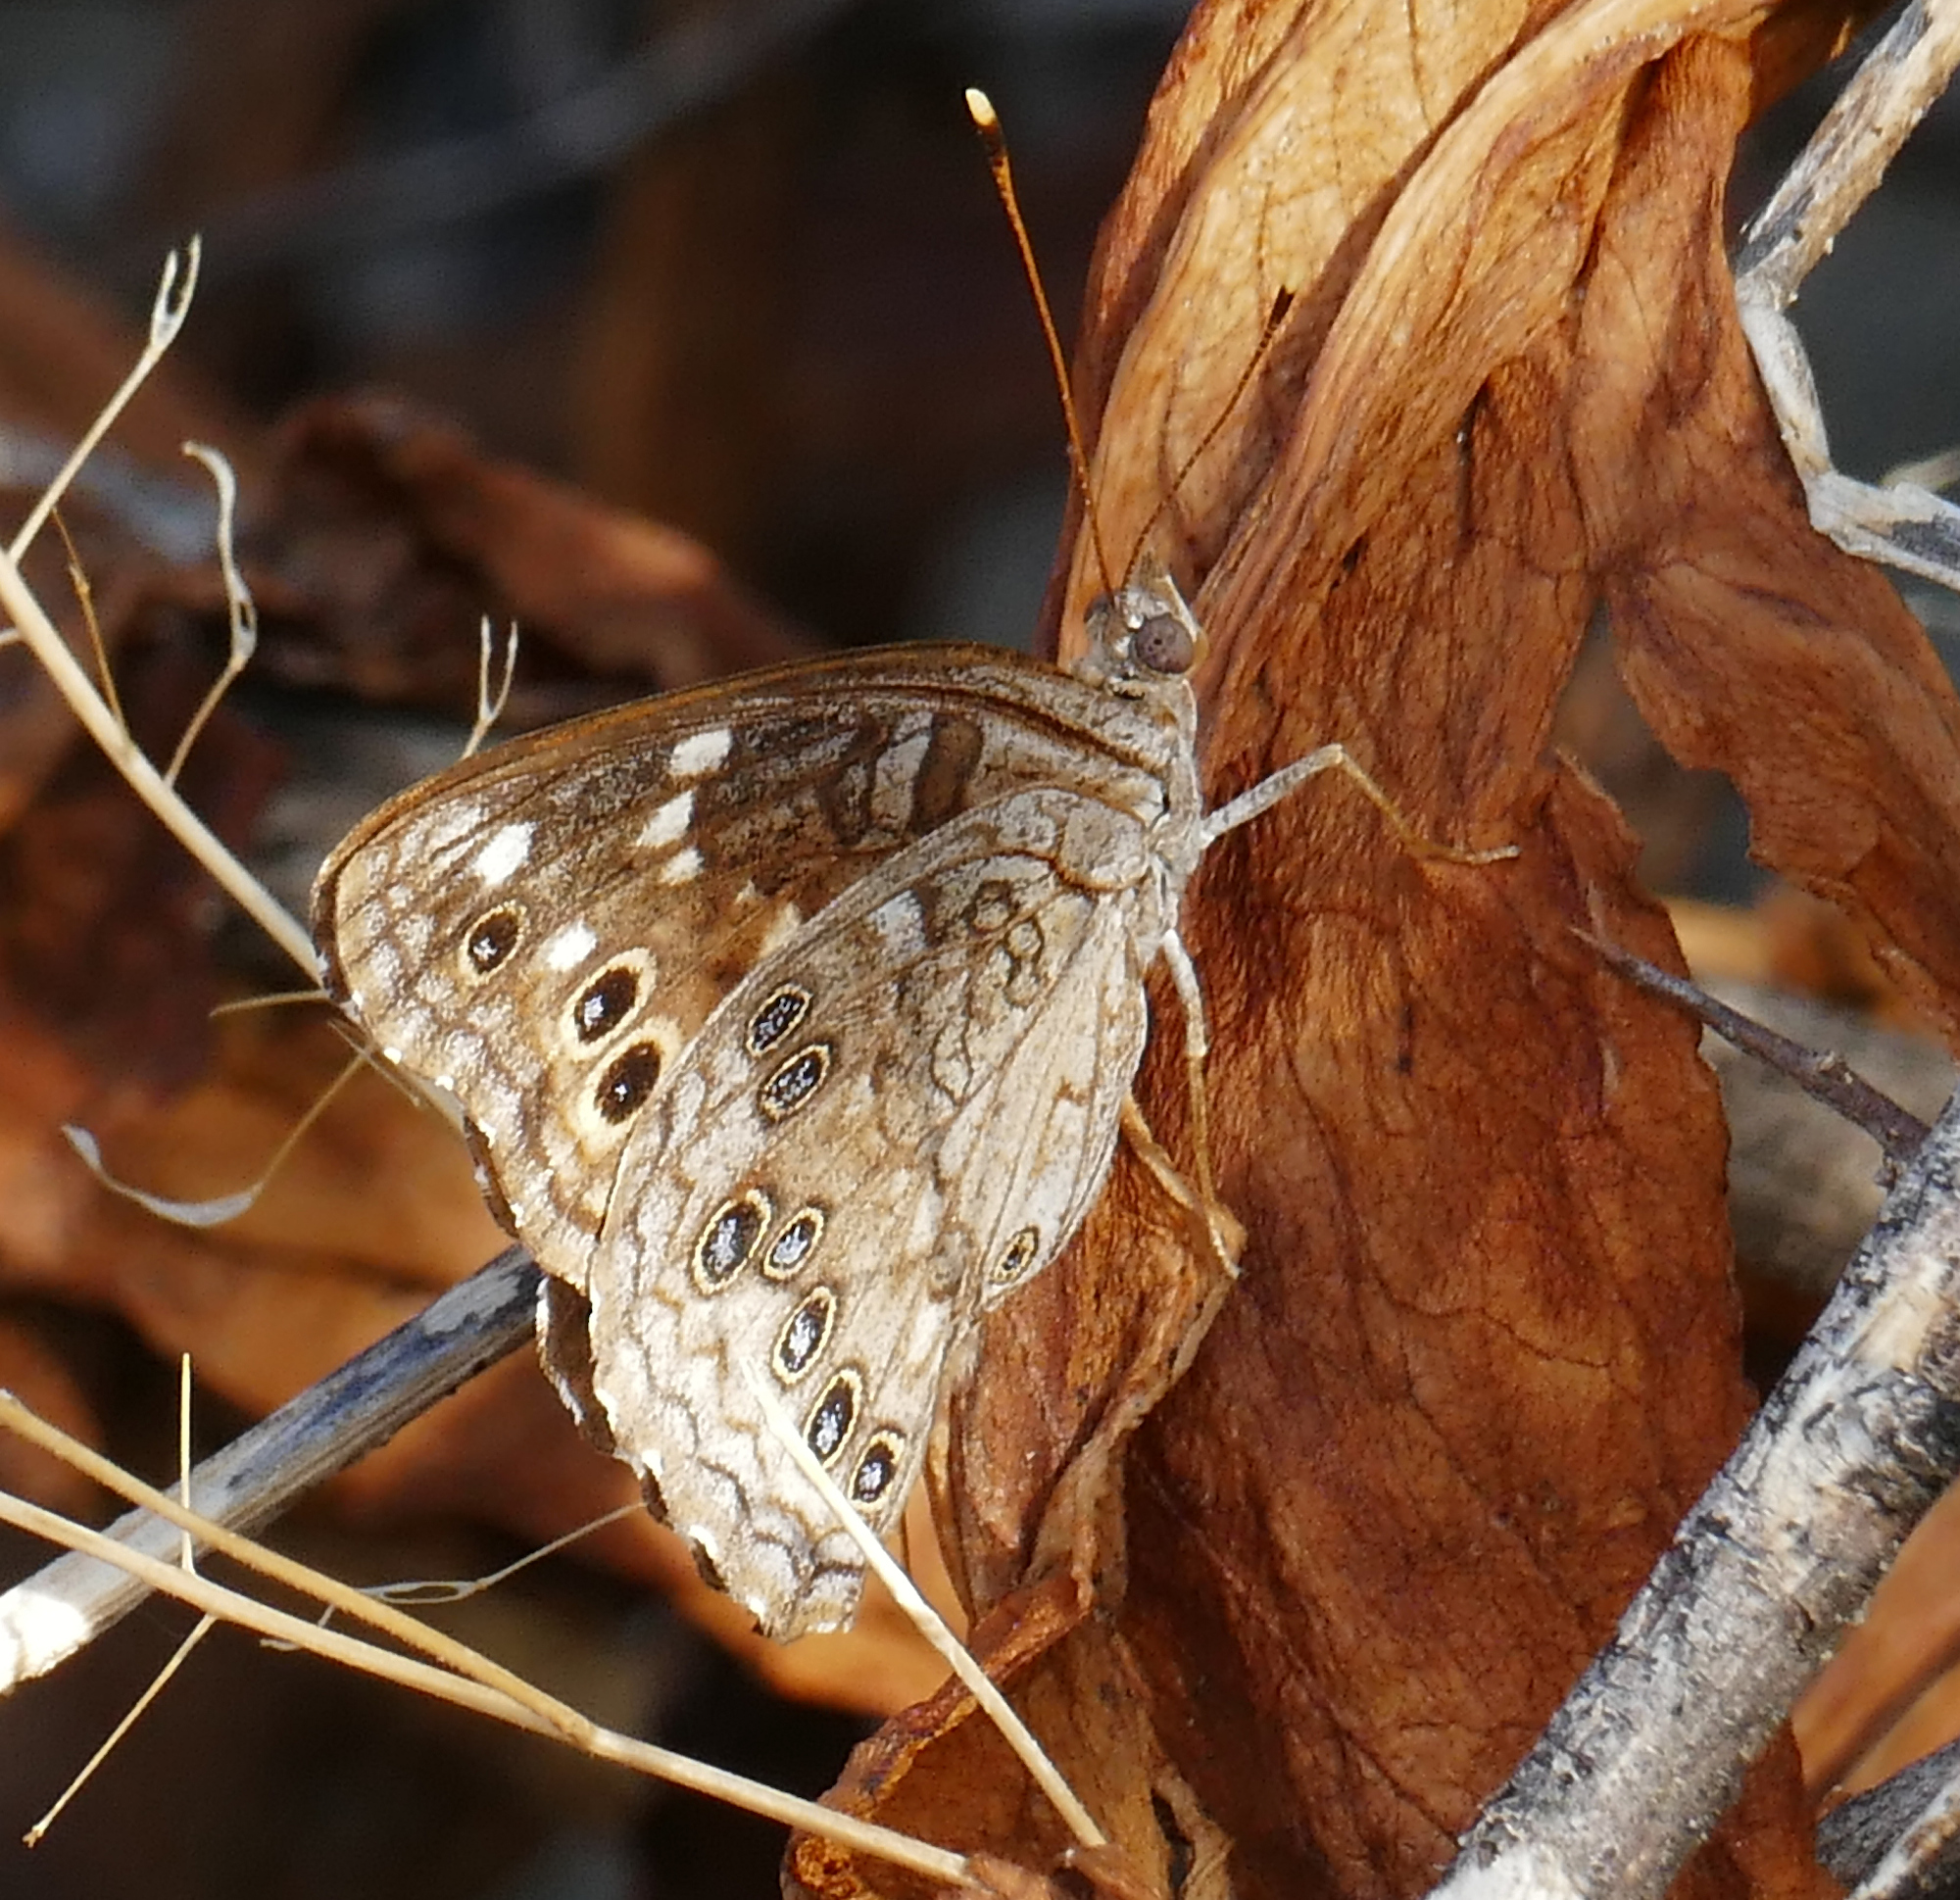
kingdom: Animalia
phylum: Arthropoda
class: Insecta
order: Lepidoptera
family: Nymphalidae
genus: Asterocampa
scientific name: Asterocampa leilia
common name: Empress leilia
